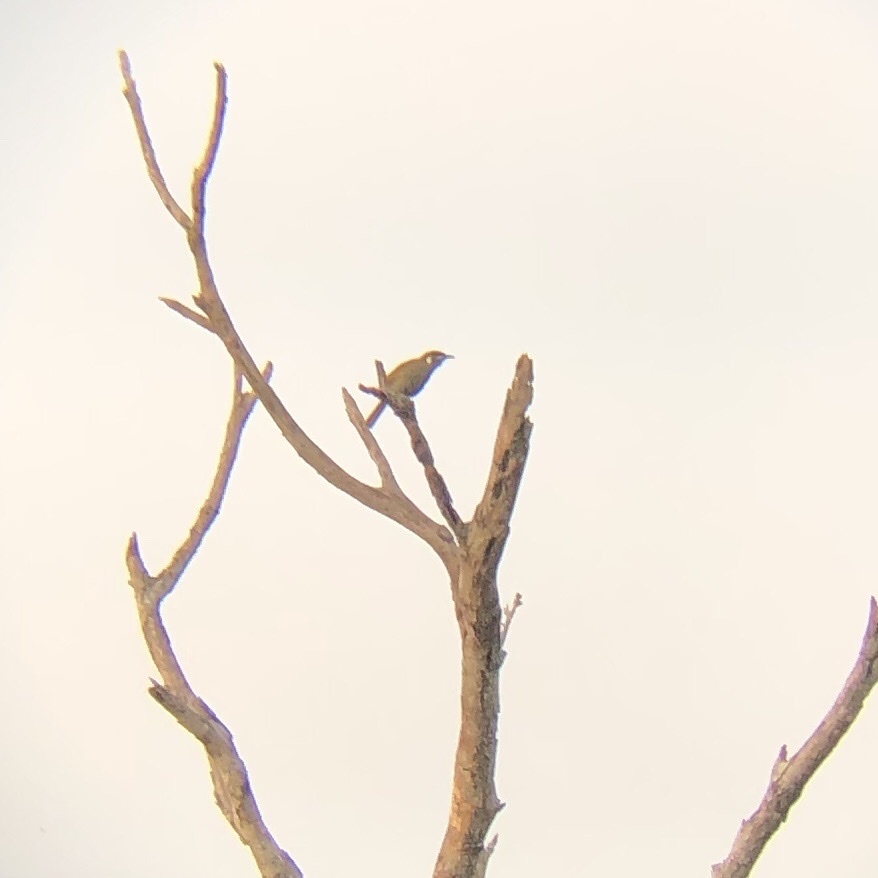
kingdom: Animalia
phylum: Chordata
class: Aves
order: Passeriformes
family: Meliphagidae
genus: Meliphaga
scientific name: Meliphaga lewinii
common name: Lewin's honeyeater
